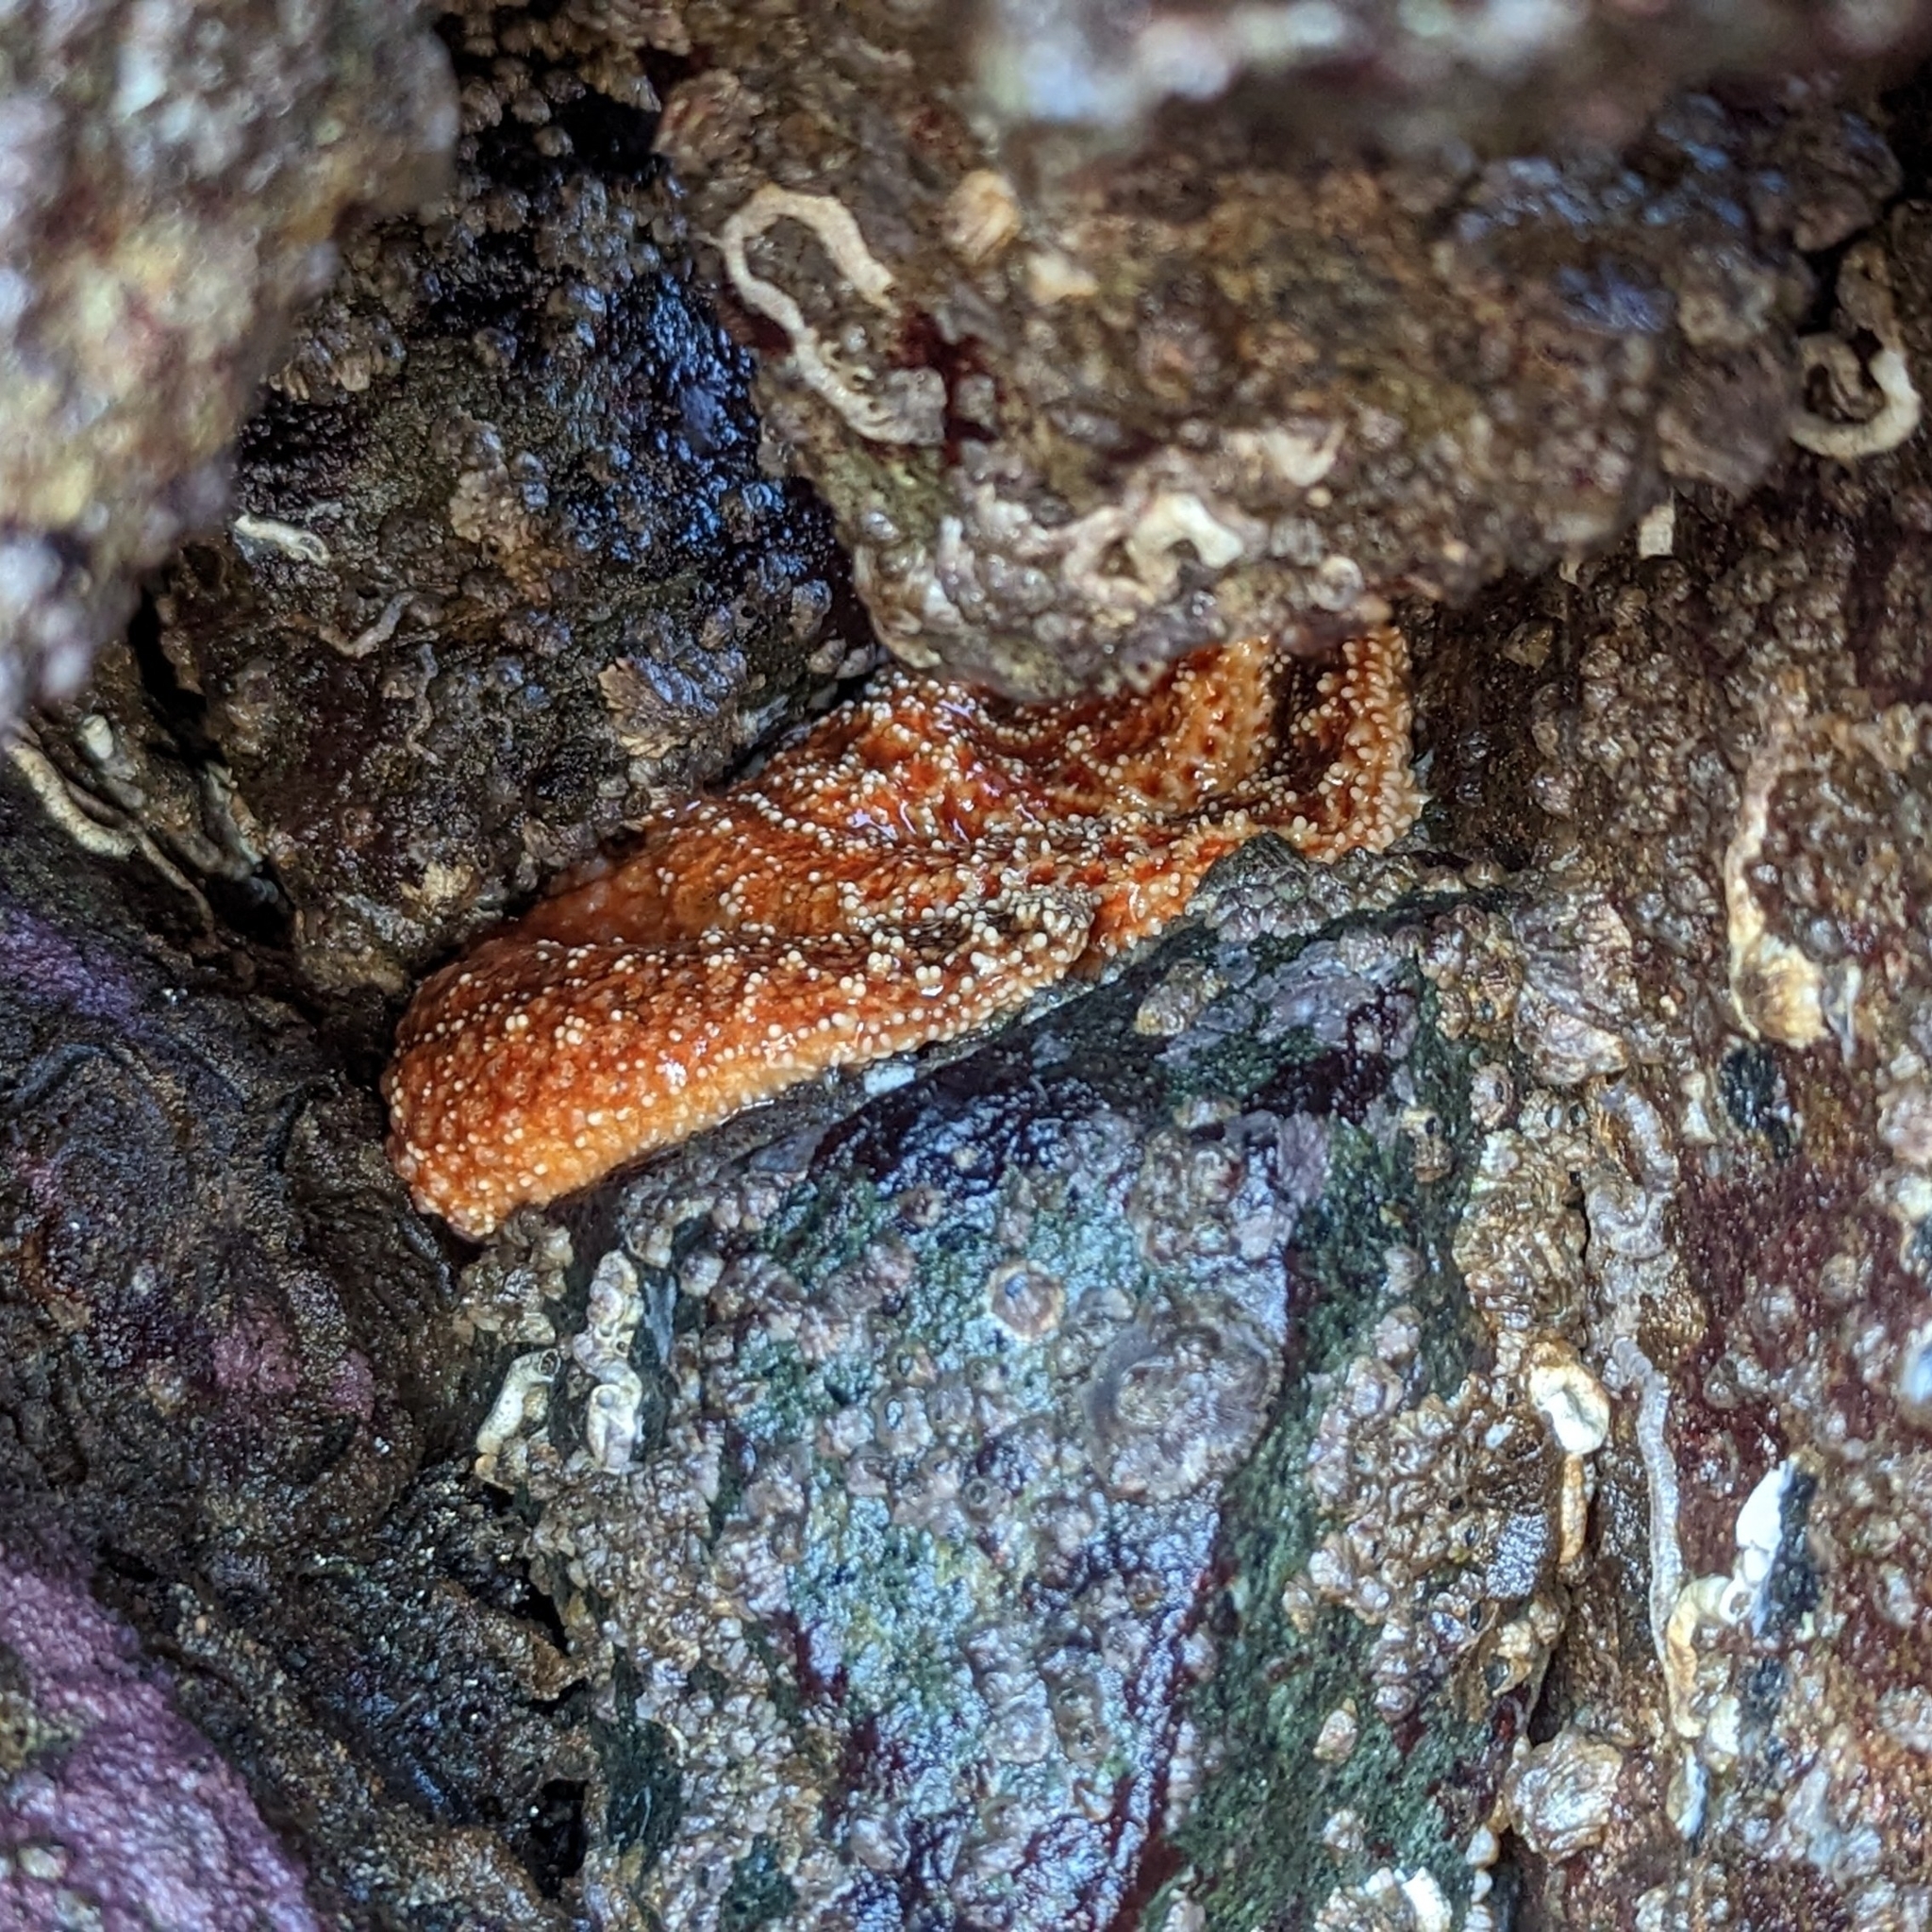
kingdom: Animalia
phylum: Echinodermata
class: Asteroidea
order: Forcipulatida
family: Asteriidae
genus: Pisaster
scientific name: Pisaster ochraceus
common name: Ochre stars
